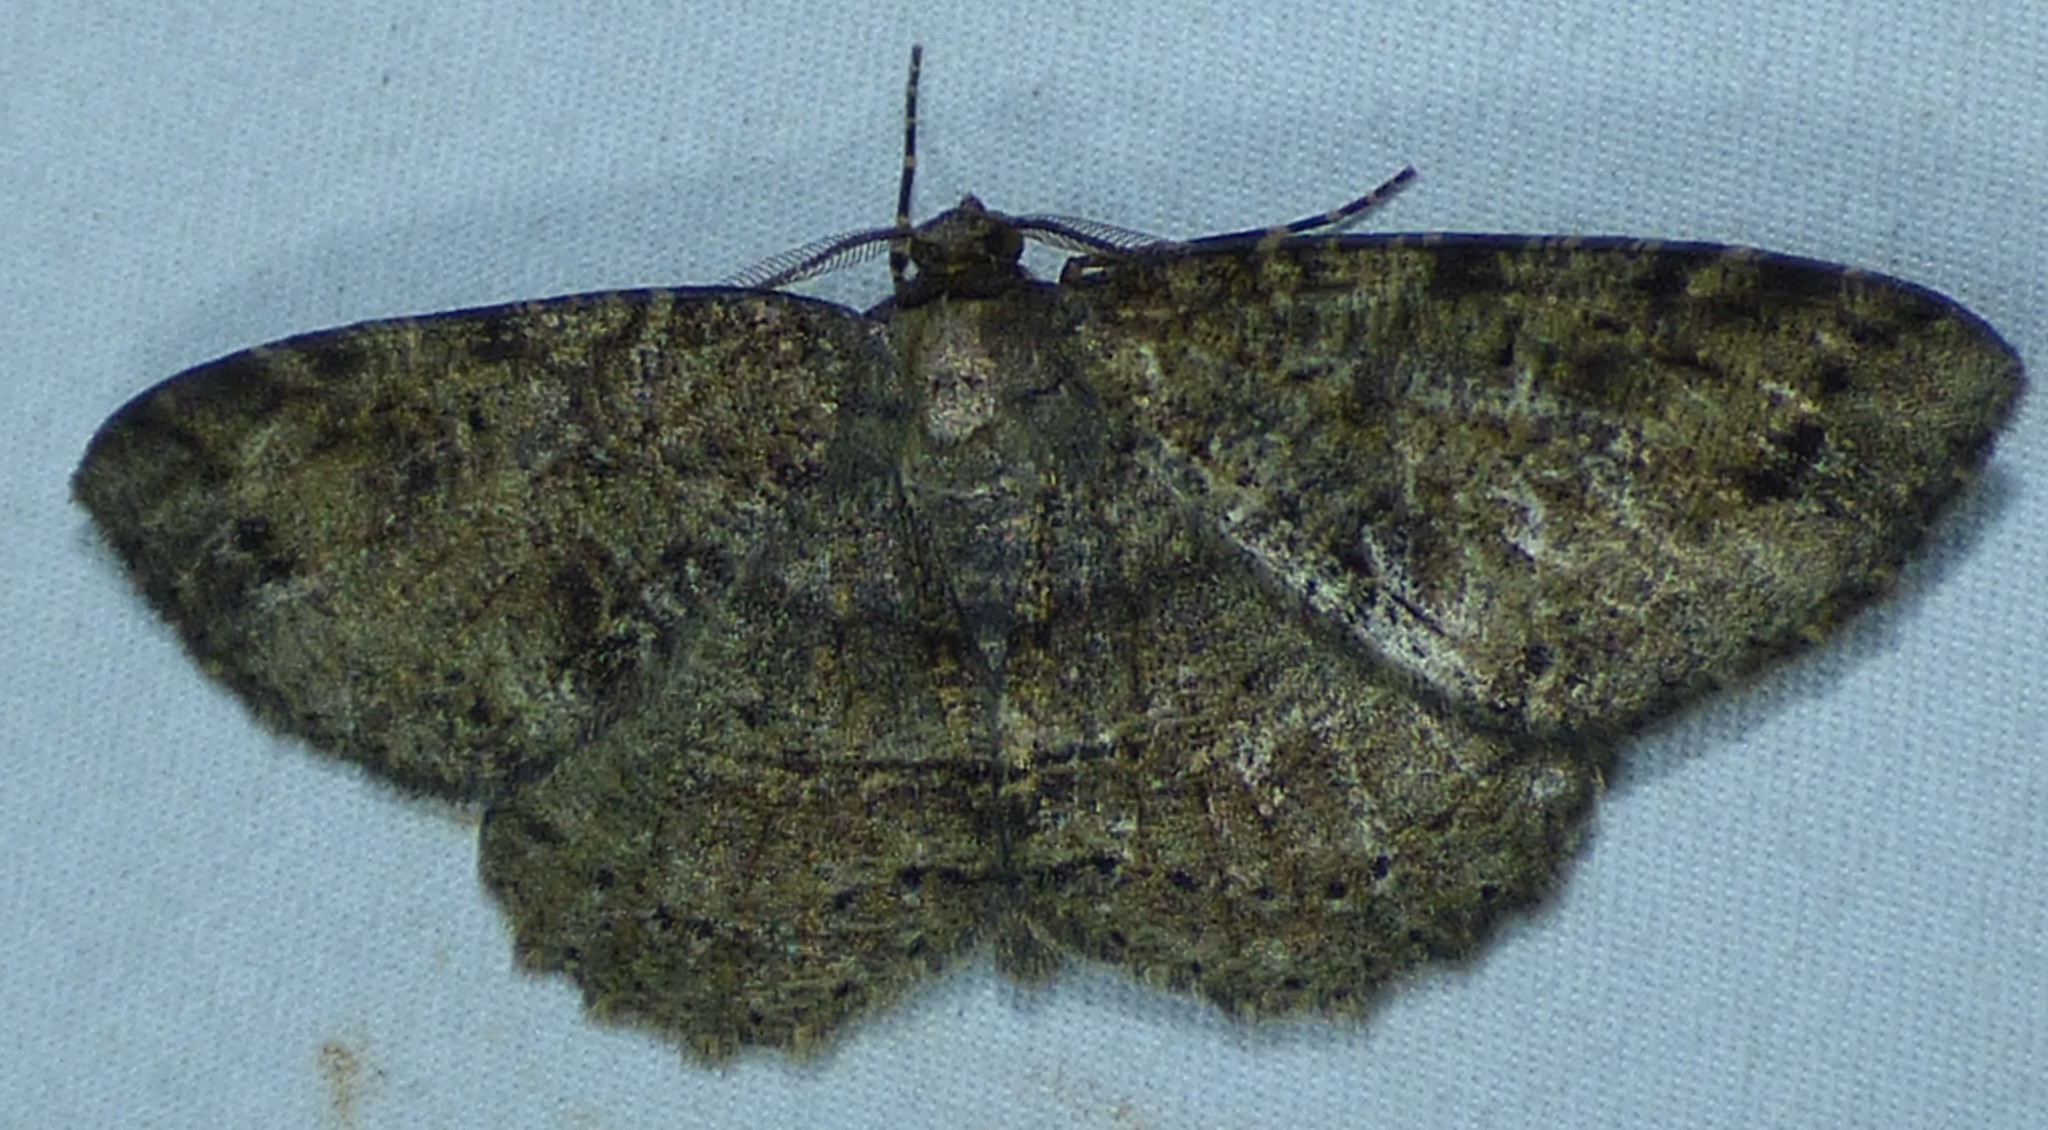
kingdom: Animalia
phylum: Arthropoda
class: Insecta
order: Lepidoptera
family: Geometridae
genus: Melanolophia
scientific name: Melanolophia canadaria
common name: Canadian melanolophia
